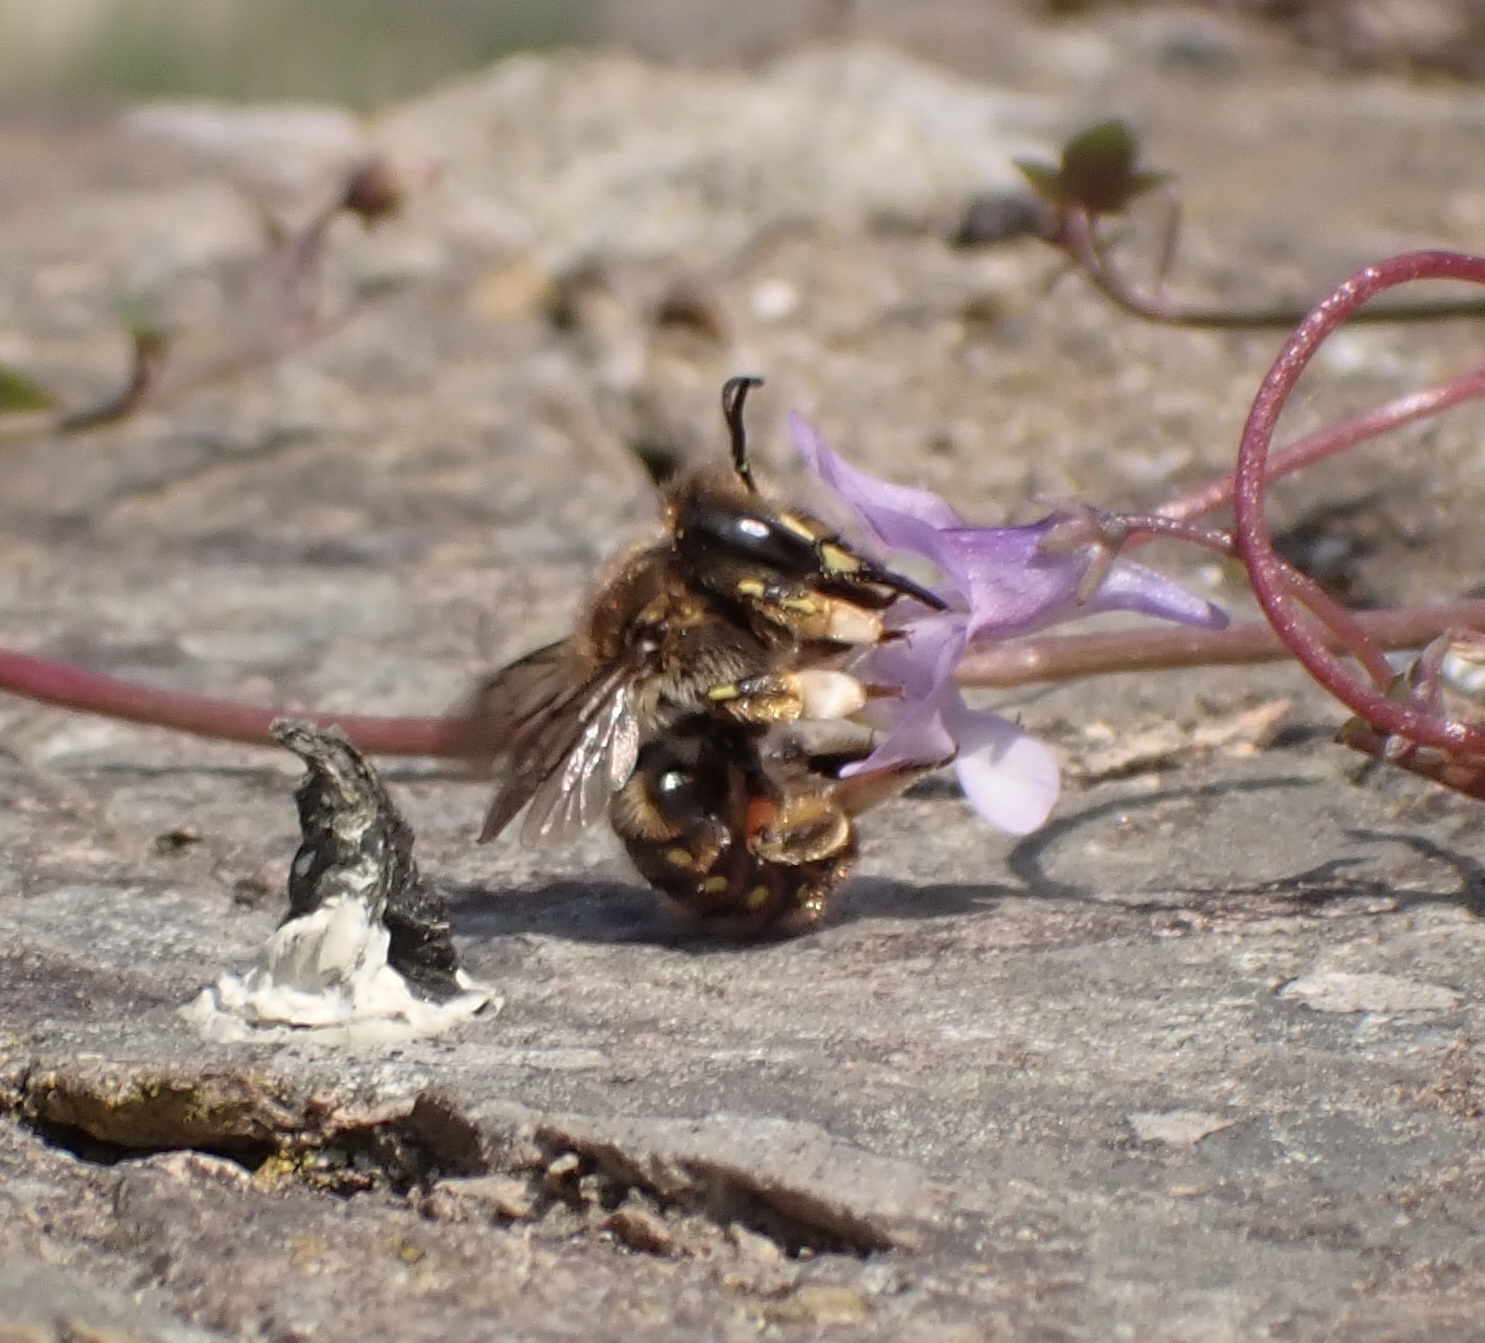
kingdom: Animalia
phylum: Arthropoda
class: Insecta
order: Hymenoptera
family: Megachilidae
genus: Anthidium
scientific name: Anthidium manicatum
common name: Wool carder bee
